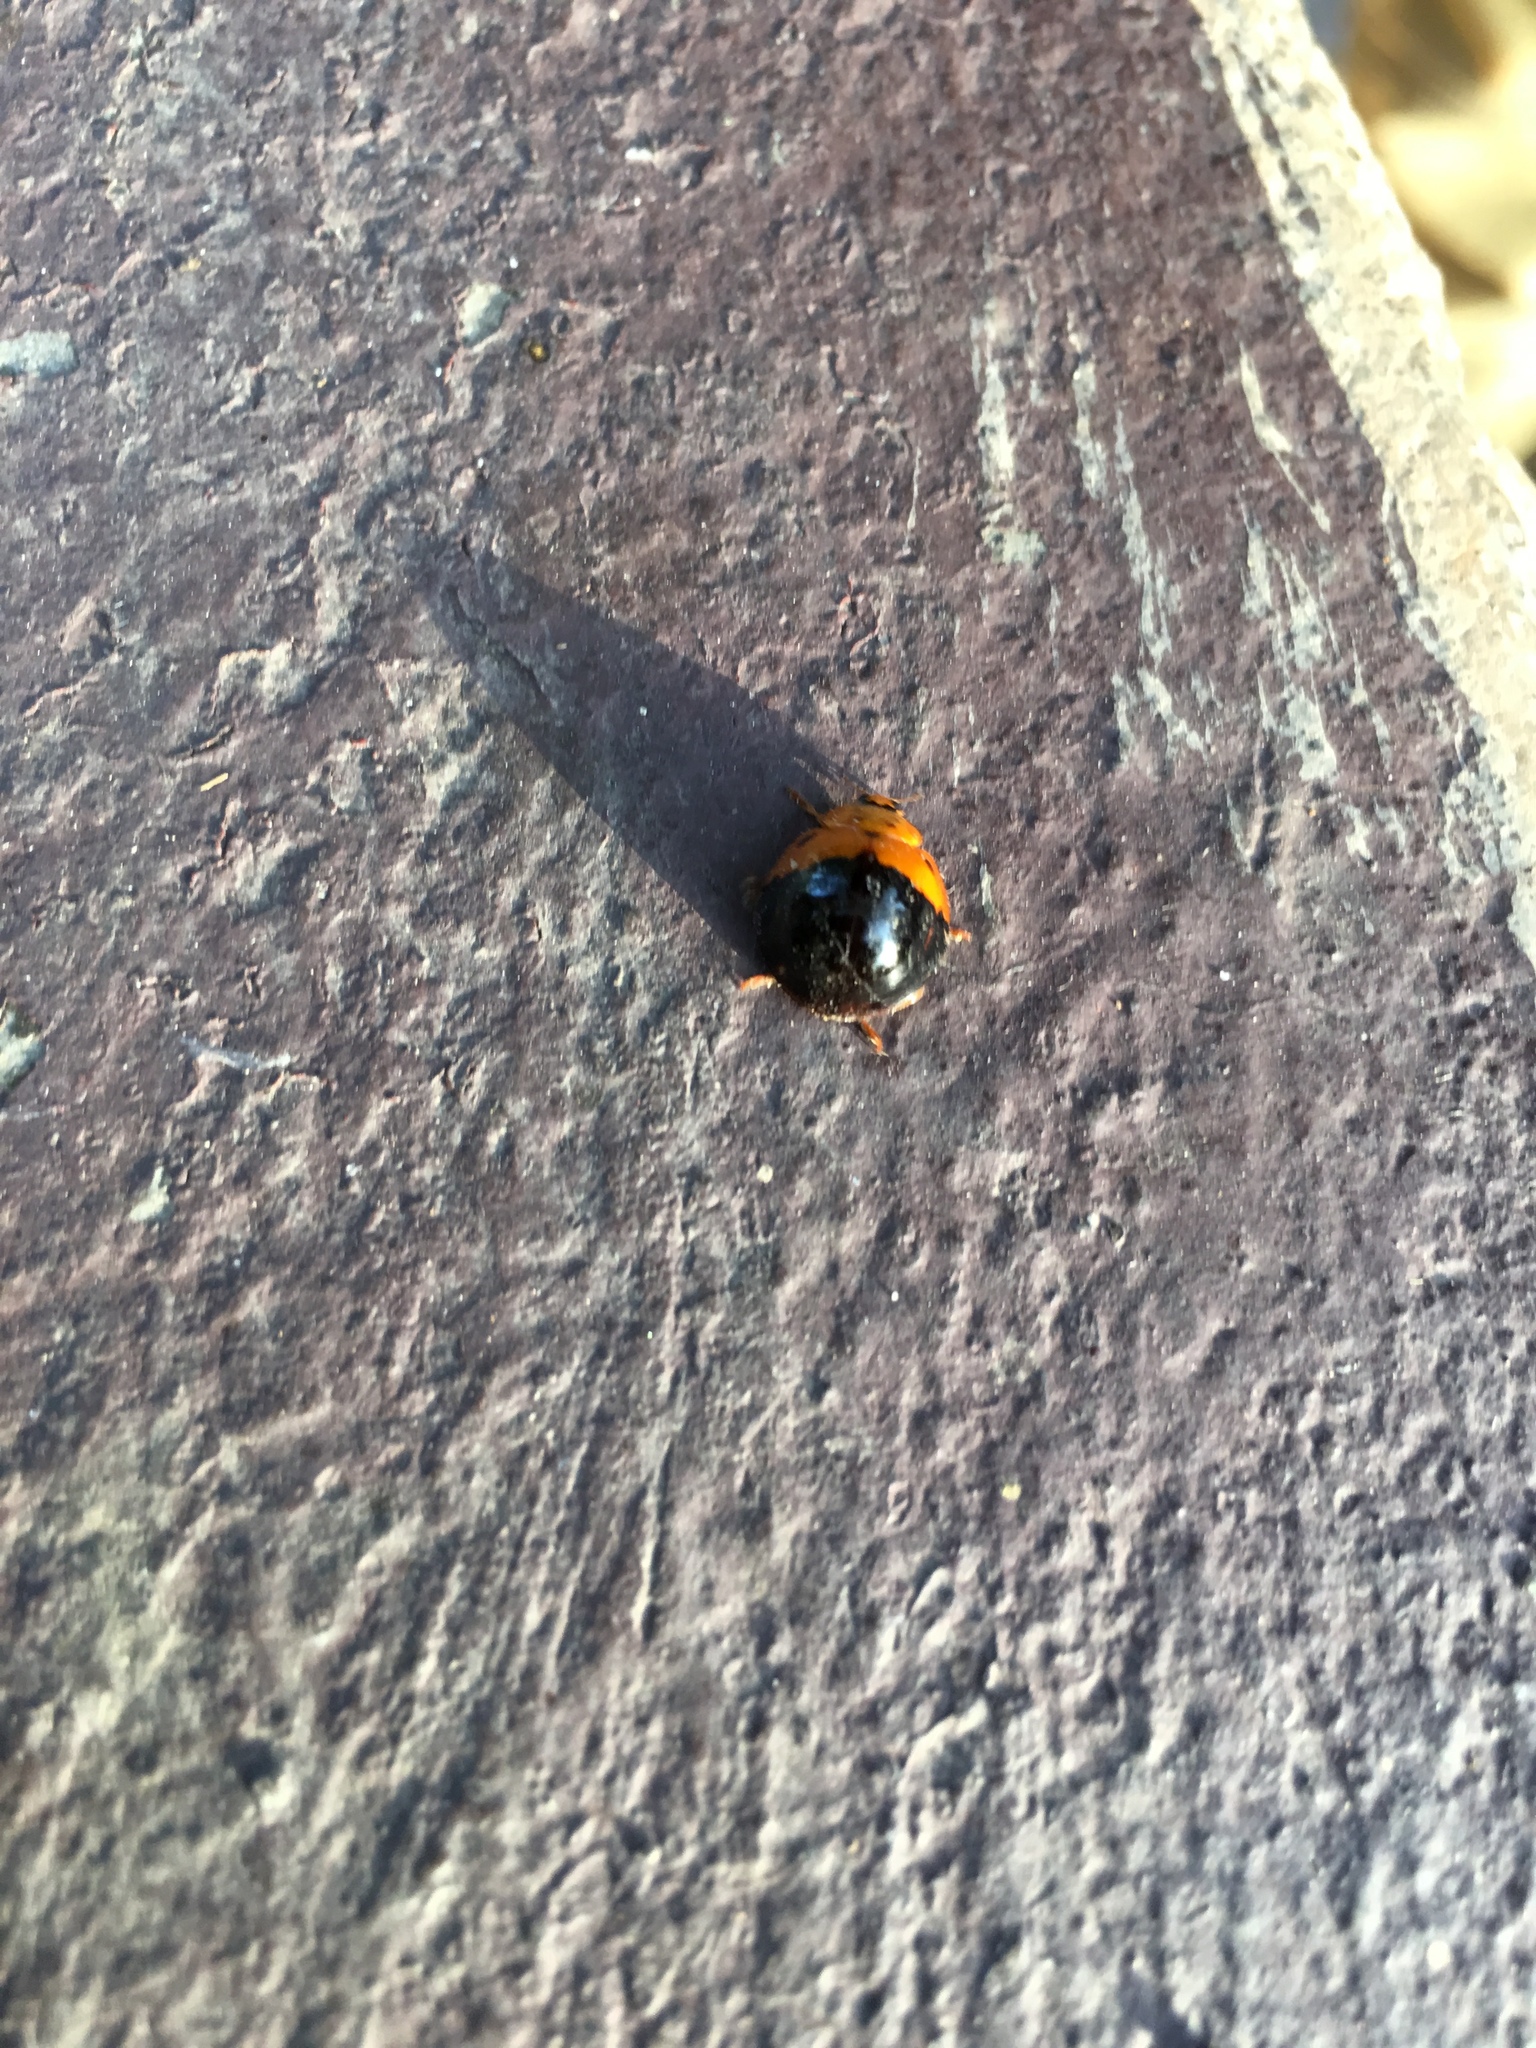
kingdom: Animalia
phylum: Arthropoda
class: Insecta
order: Coleoptera
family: Coccinellidae
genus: Harmonia
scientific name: Harmonia dimidiata
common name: Ladybird beetle
